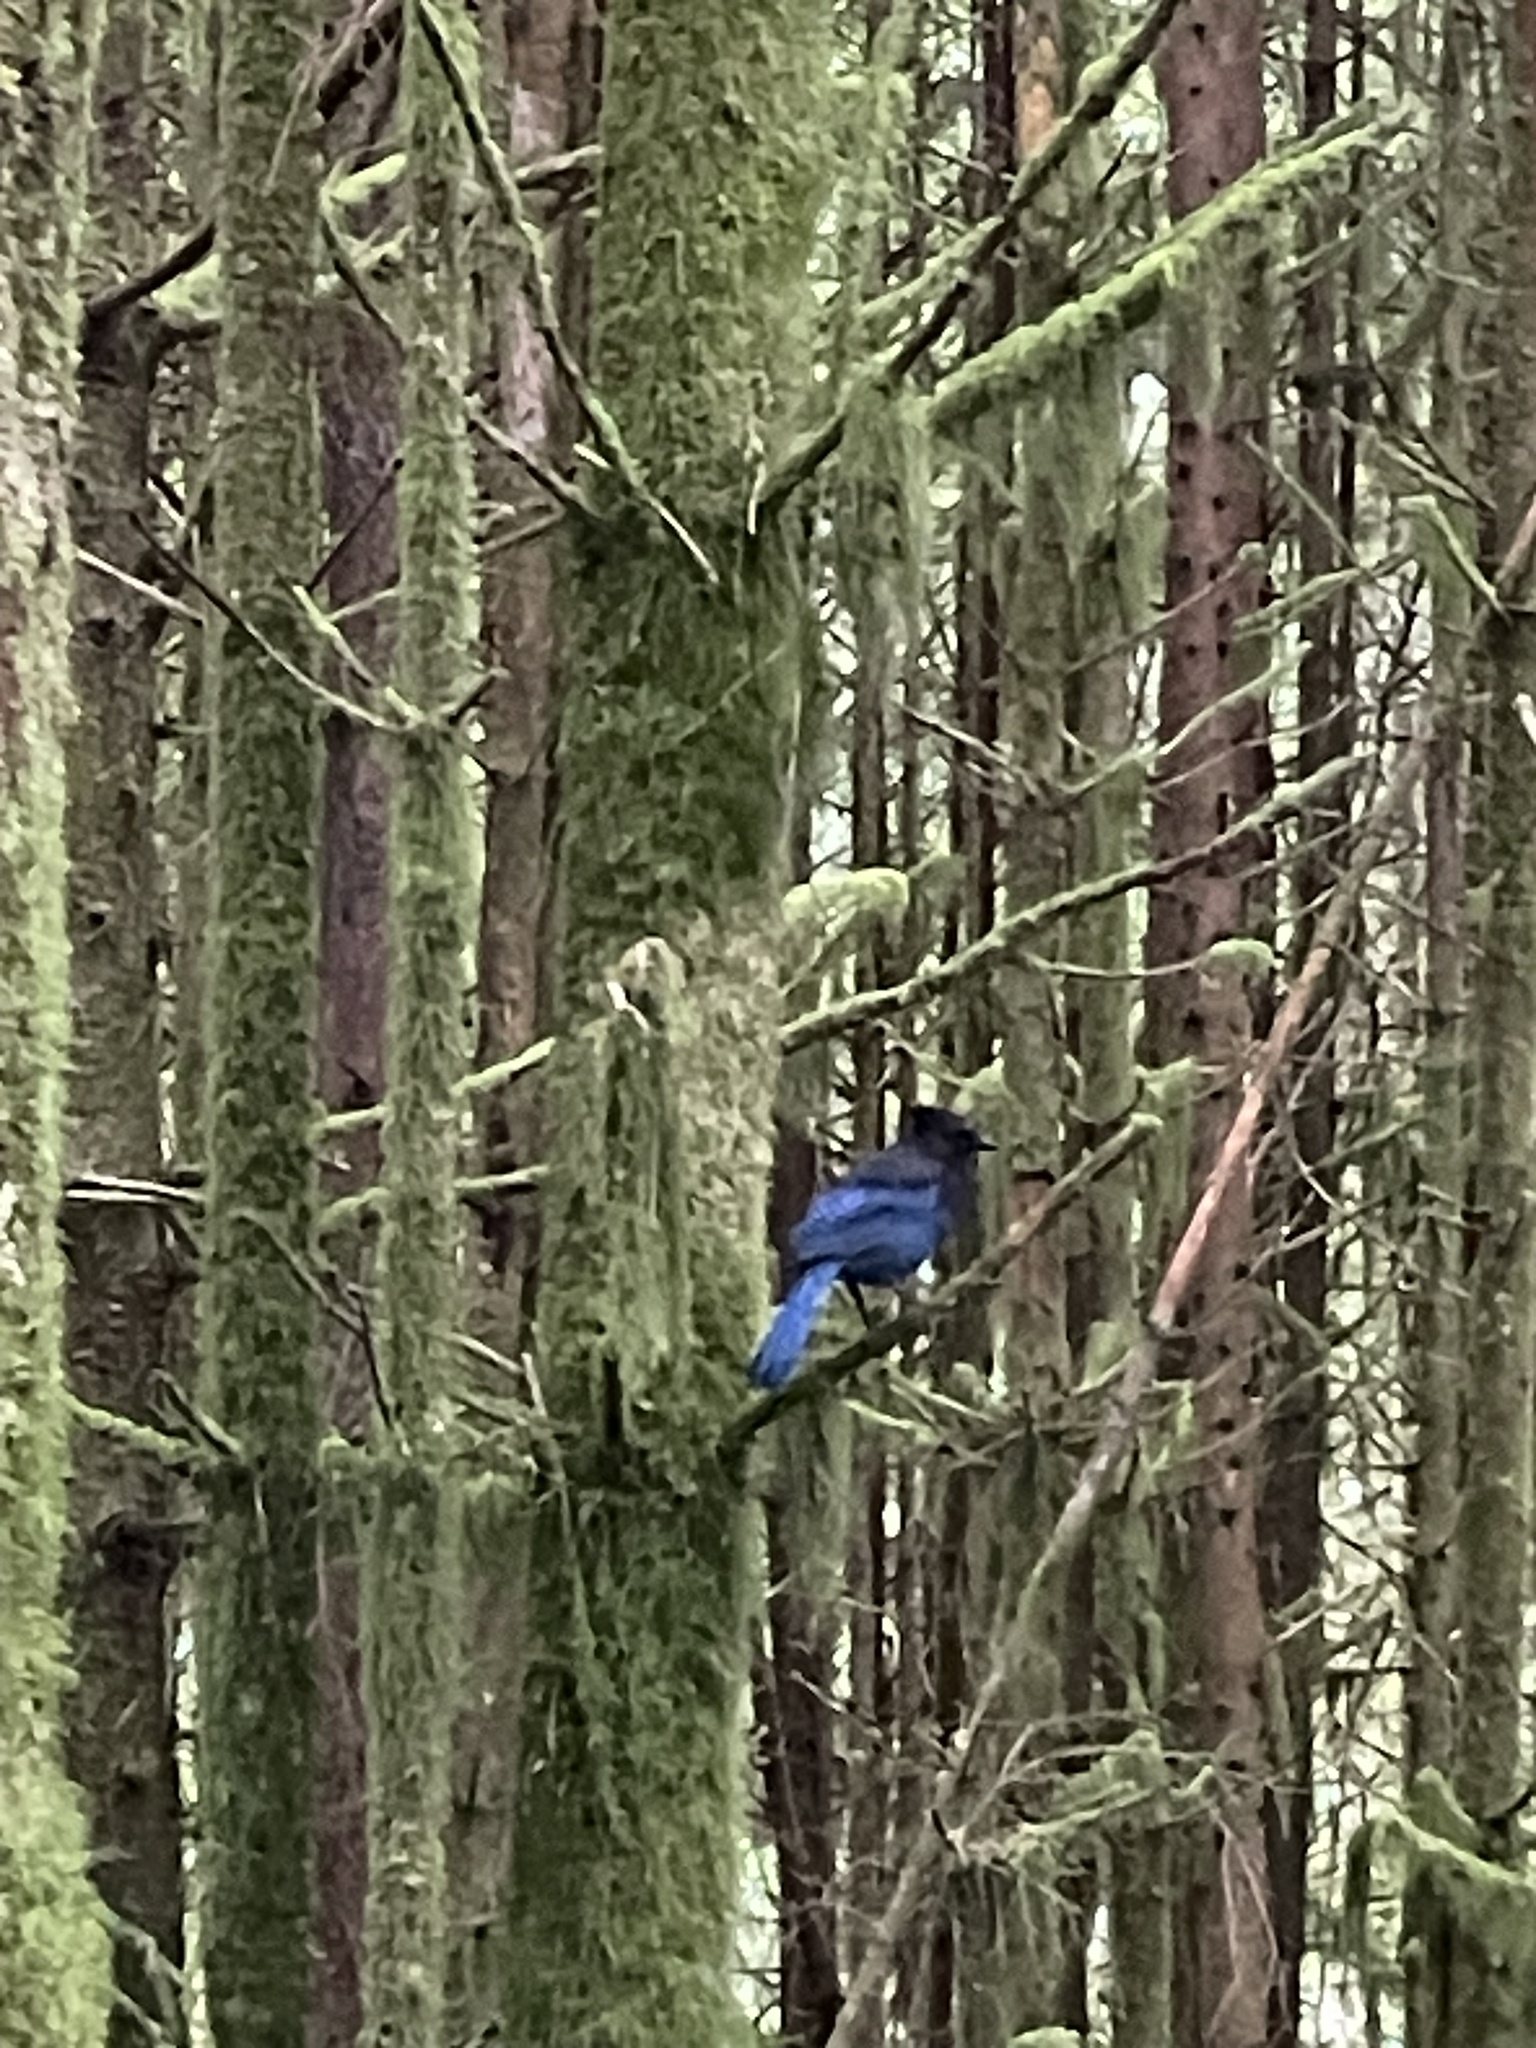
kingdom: Animalia
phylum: Chordata
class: Aves
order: Passeriformes
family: Corvidae
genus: Cyanocitta
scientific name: Cyanocitta stelleri
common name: Steller's jay
